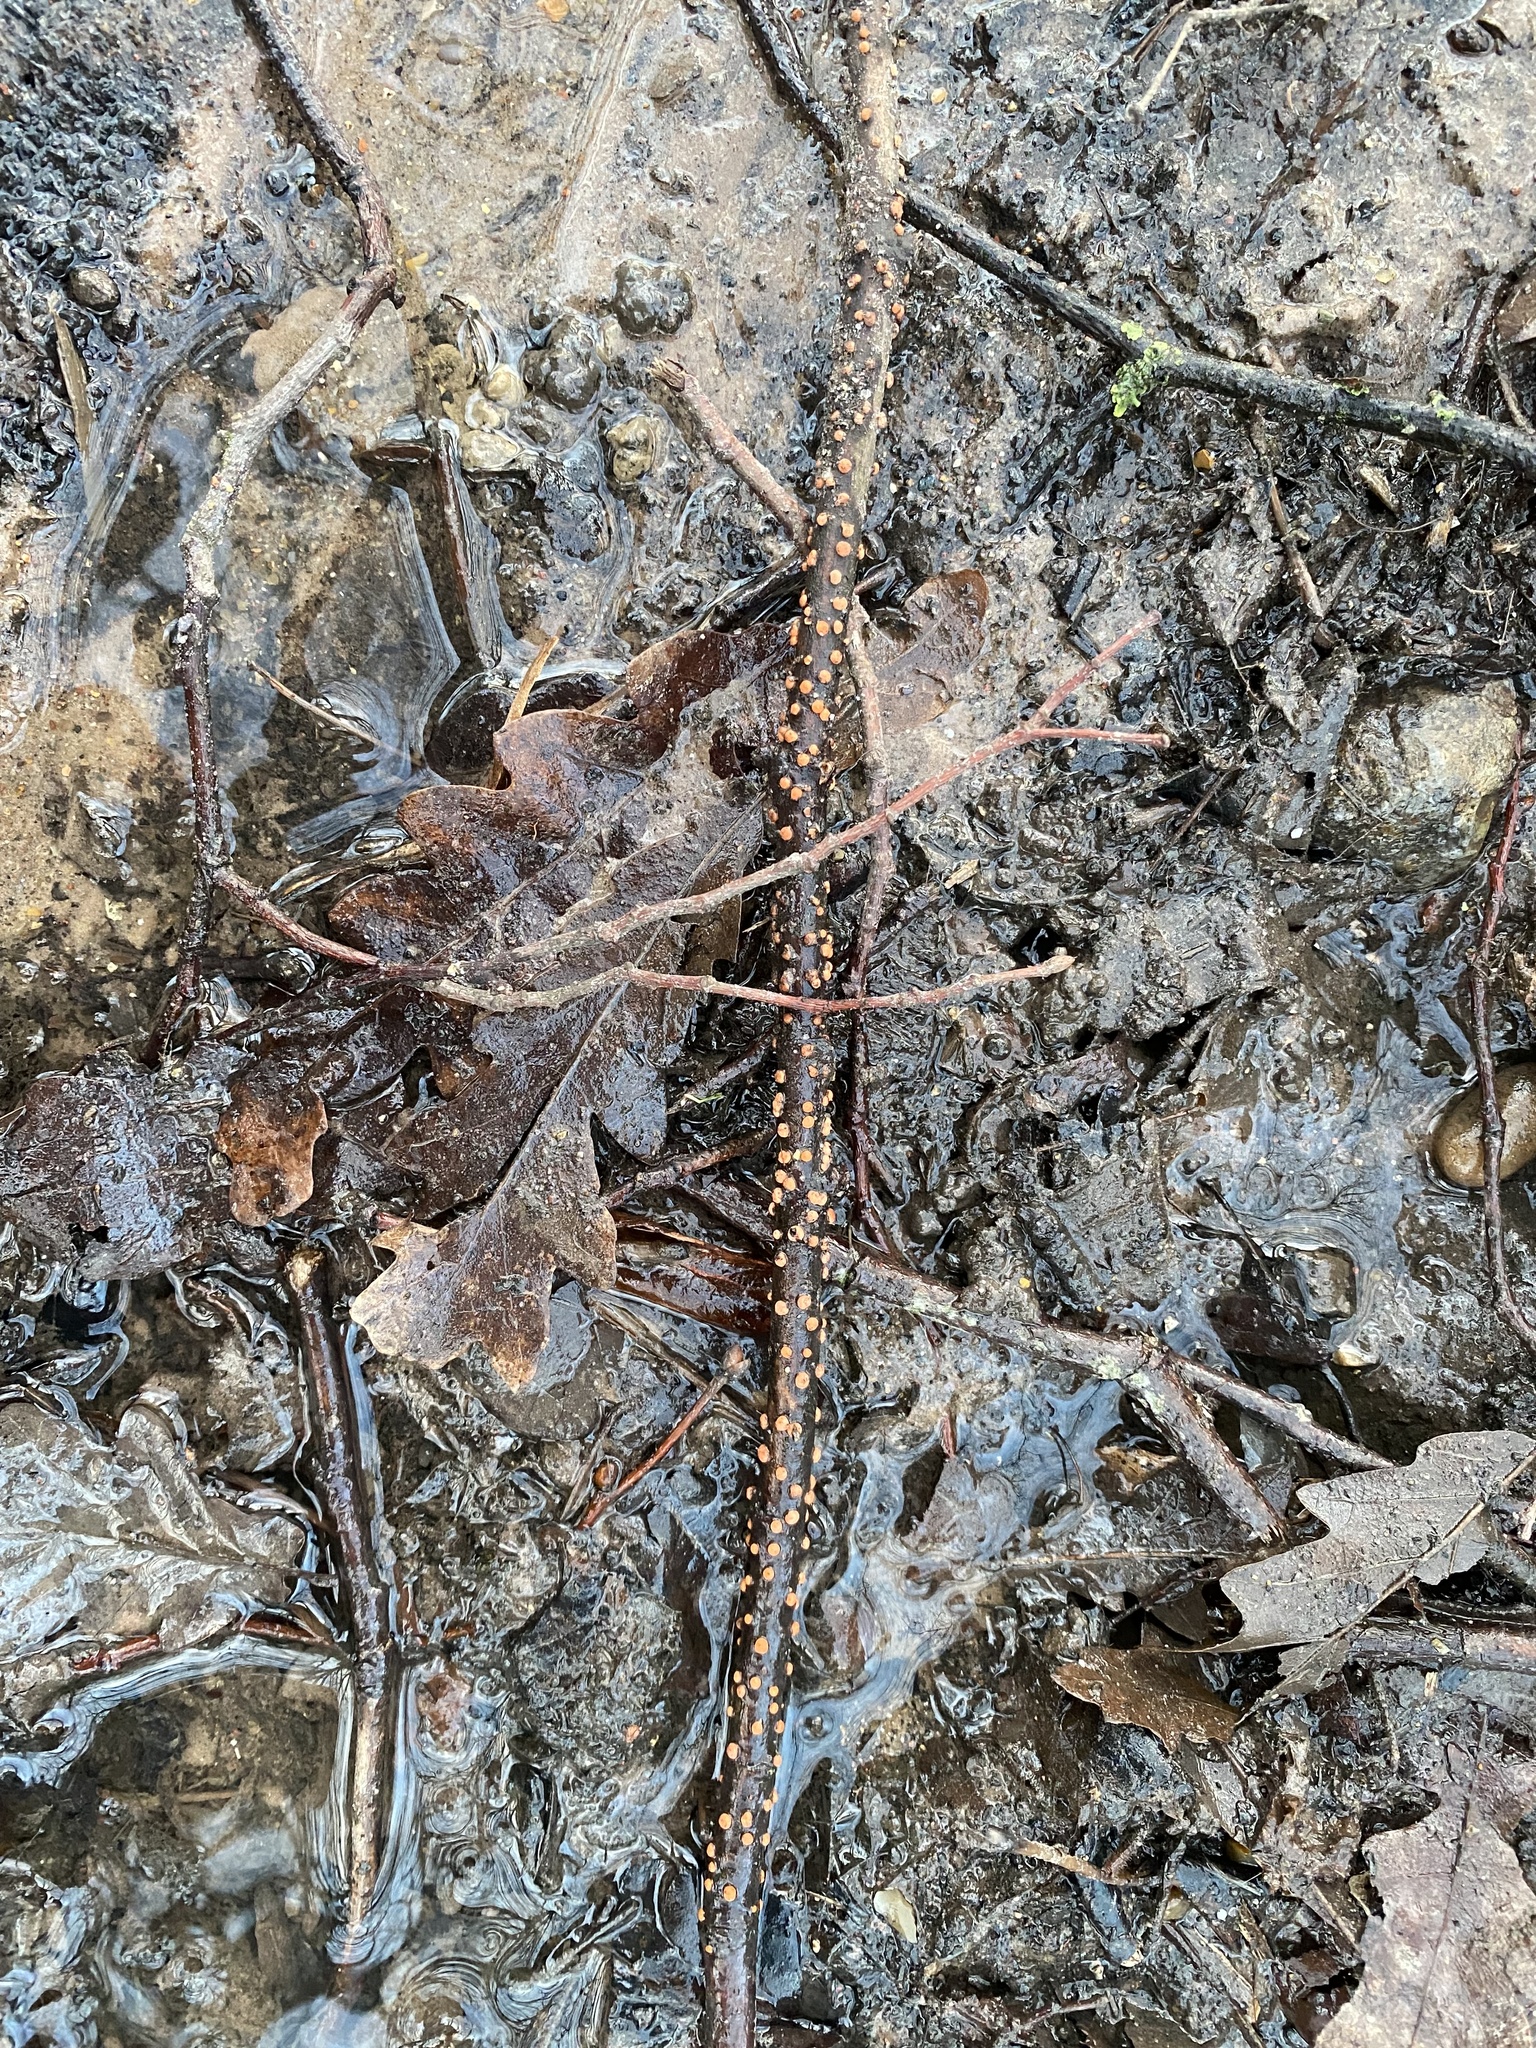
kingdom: Fungi
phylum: Ascomycota
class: Sordariomycetes
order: Hypocreales
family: Nectriaceae
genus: Nectria
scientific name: Nectria cinnabarina
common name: Coral spot
